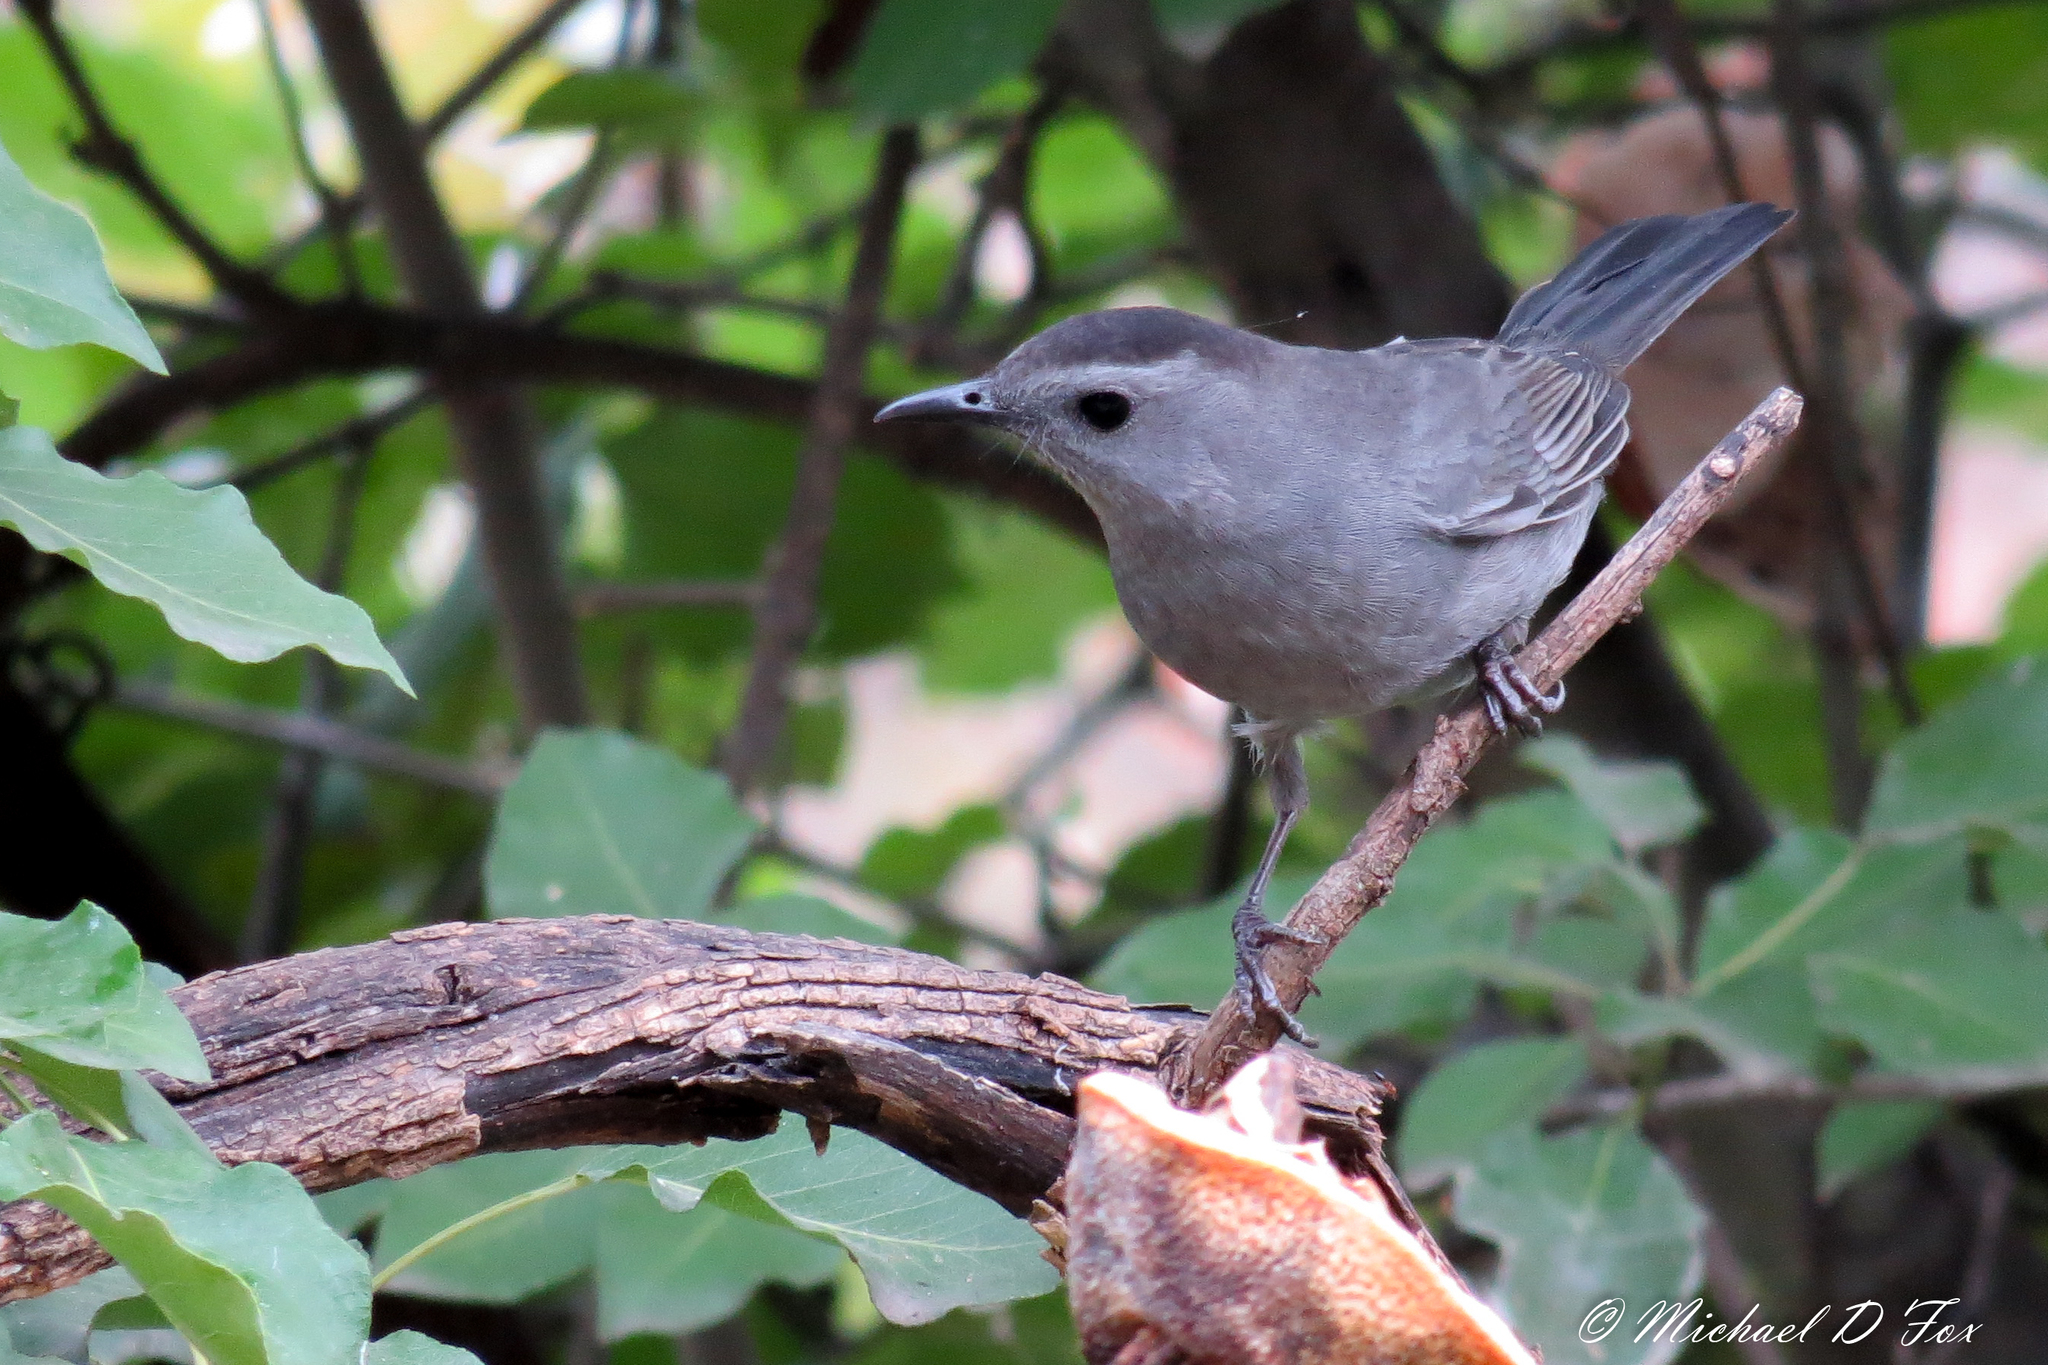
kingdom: Animalia
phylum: Chordata
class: Aves
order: Passeriformes
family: Mimidae
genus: Dumetella
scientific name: Dumetella carolinensis
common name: Gray catbird
